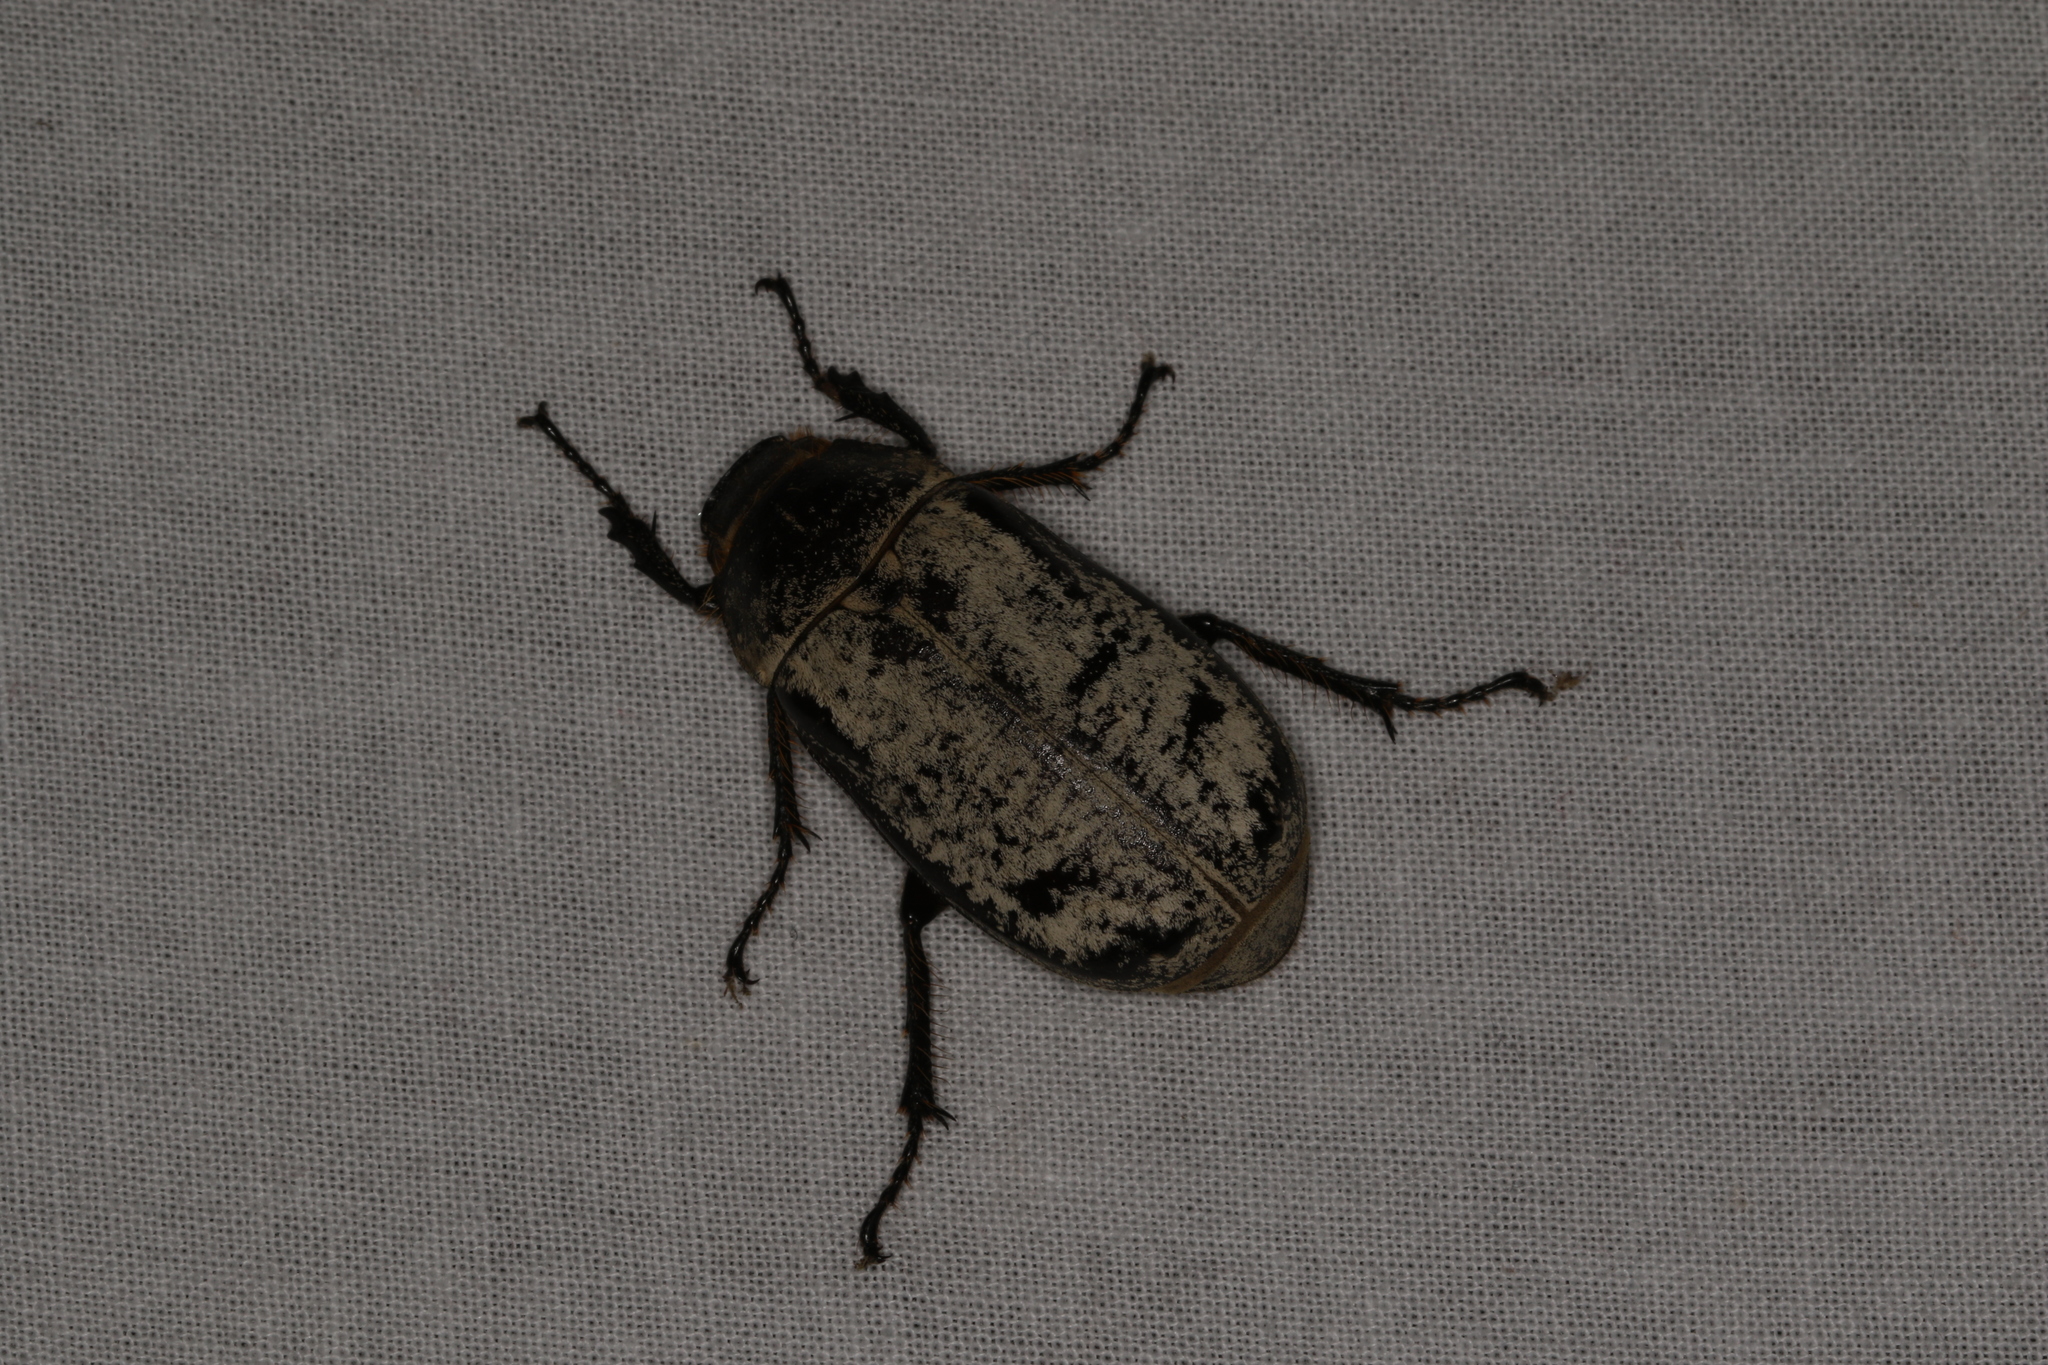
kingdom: Animalia
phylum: Arthropoda
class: Insecta
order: Coleoptera
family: Scarabaeidae
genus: Dermolepida
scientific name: Dermolepida albohirtum
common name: Greyback cane beetle
